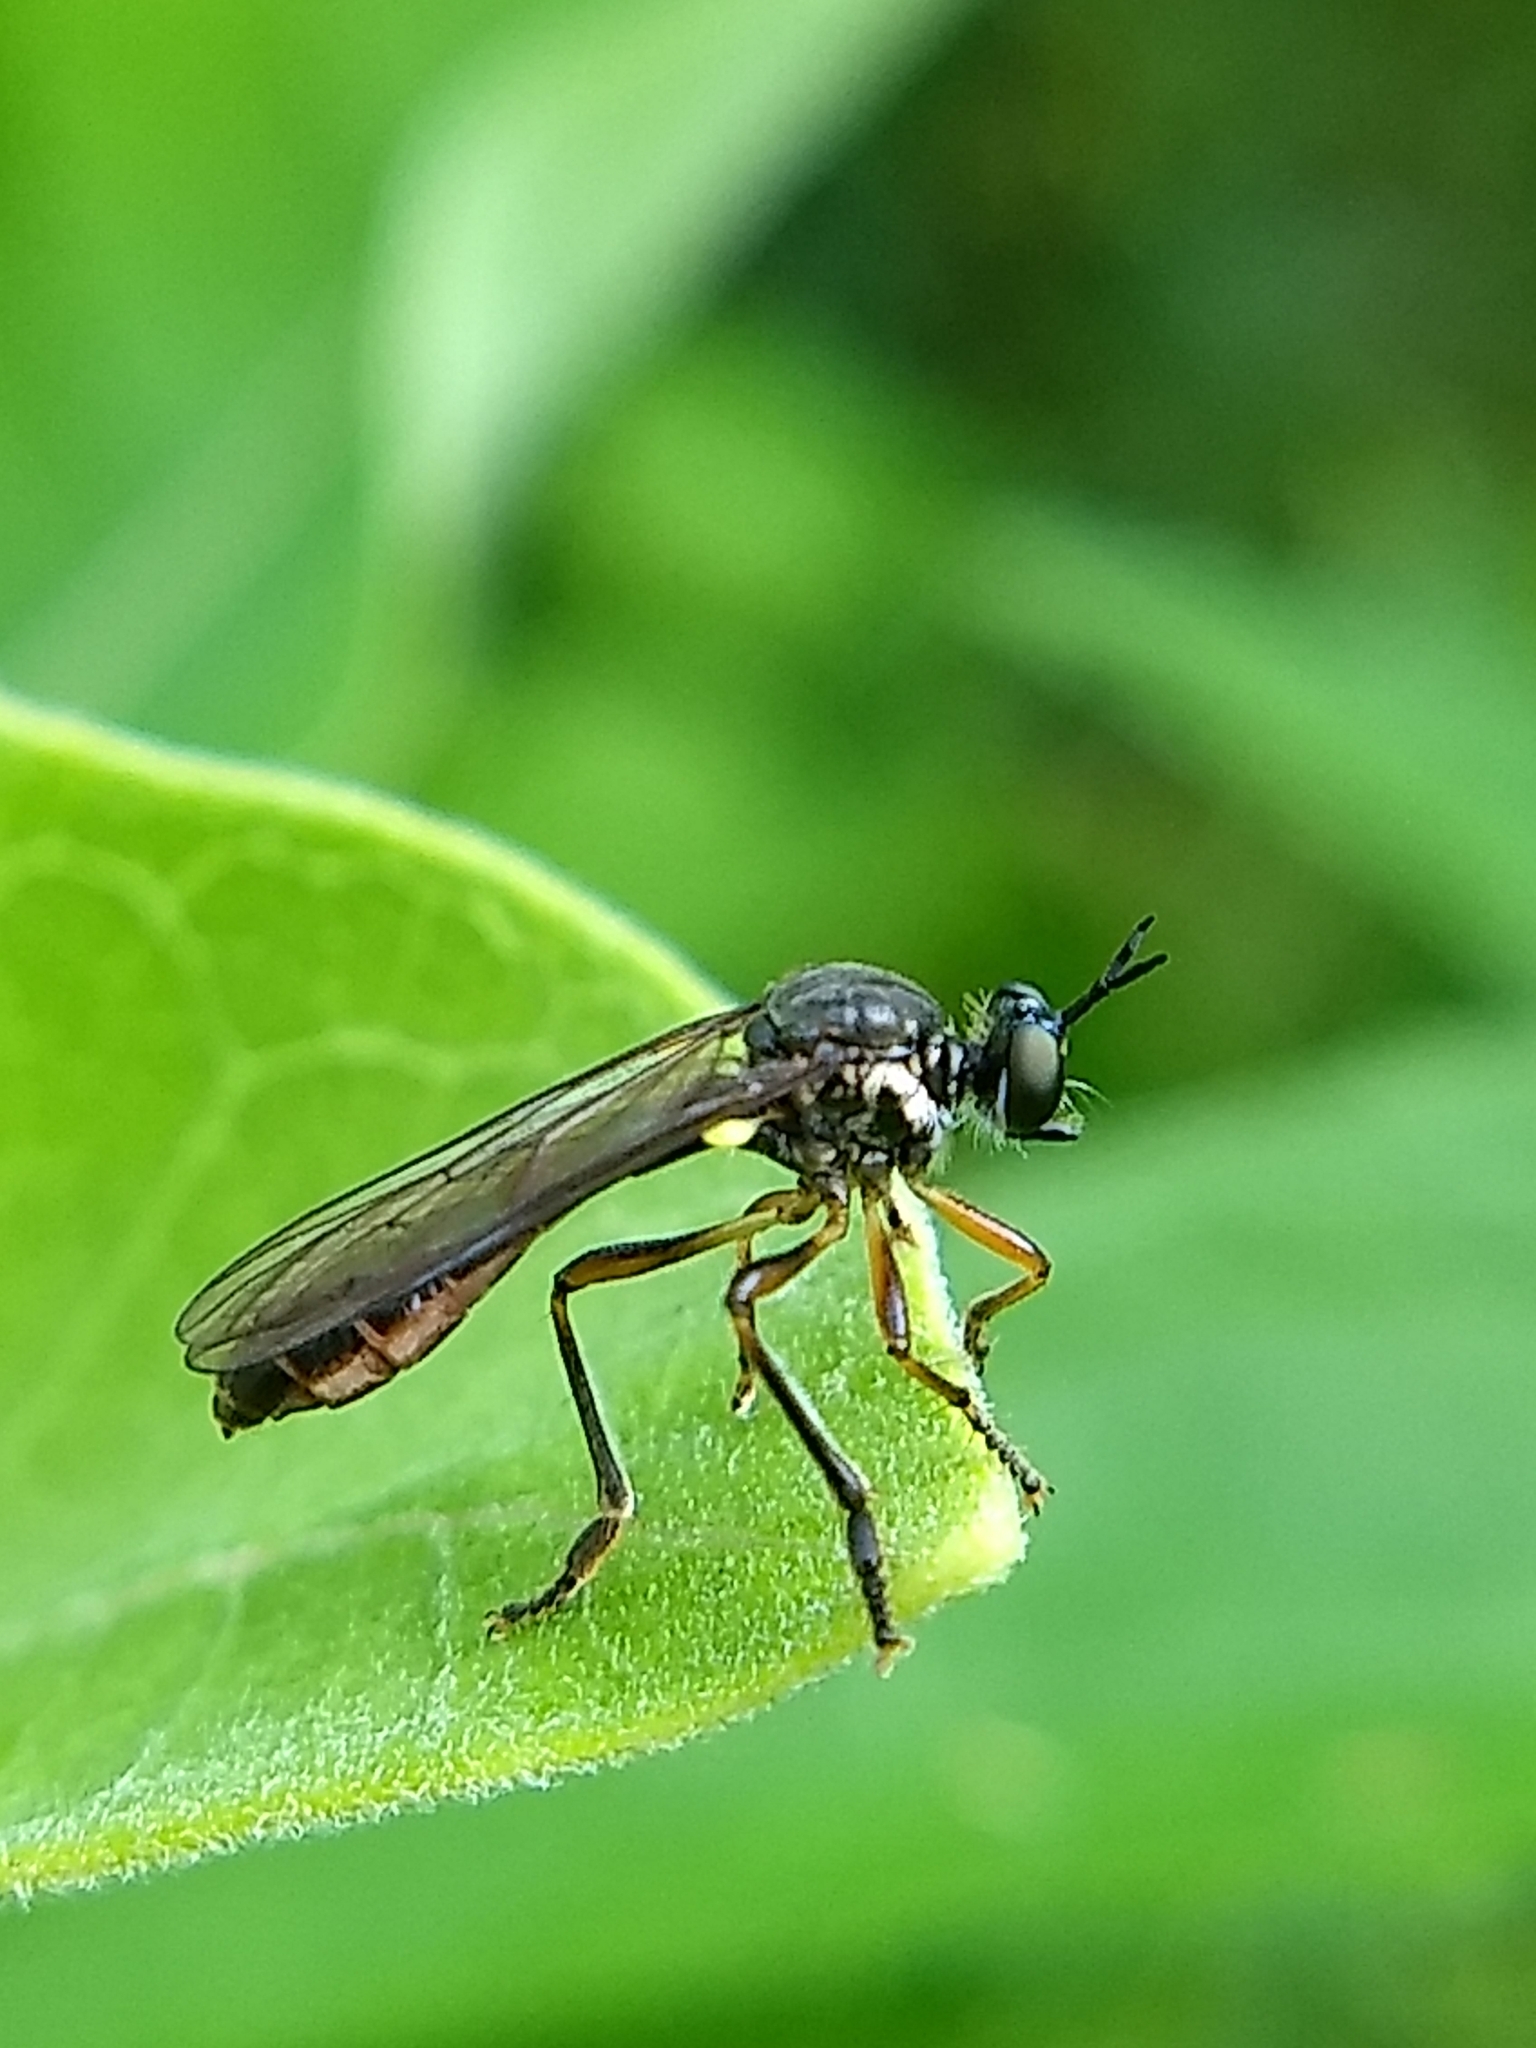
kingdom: Animalia
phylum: Arthropoda
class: Insecta
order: Diptera
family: Asilidae
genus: Dioctria
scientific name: Dioctria hyalipennis
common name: Stripe-legged robberfly
